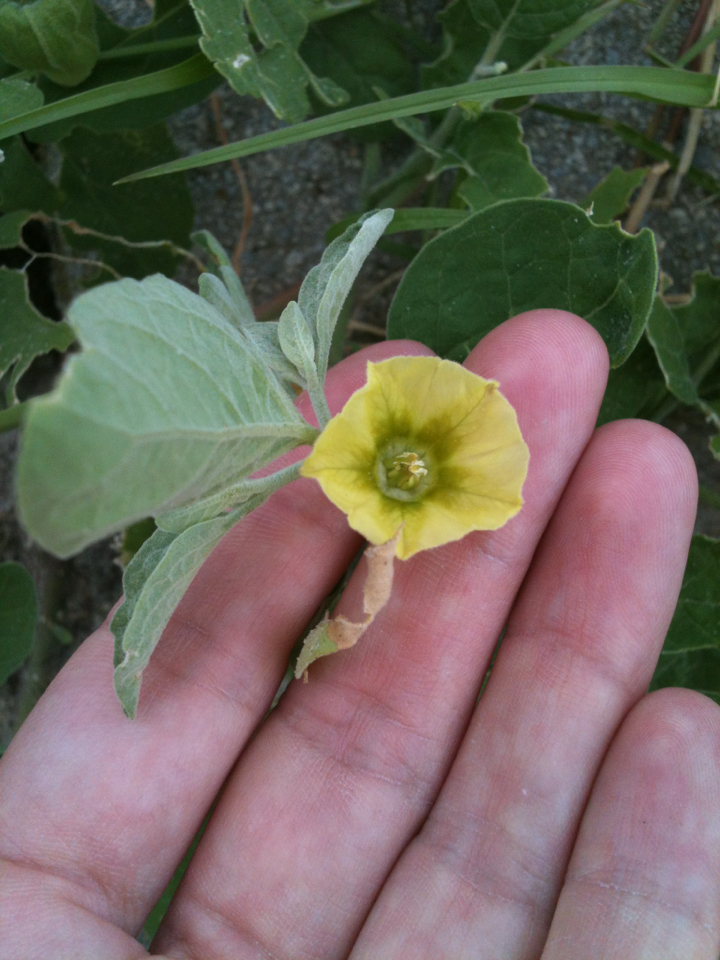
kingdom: Plantae
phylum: Tracheophyta
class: Magnoliopsida
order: Solanales
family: Solanaceae
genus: Physalis
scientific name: Physalis walteri
